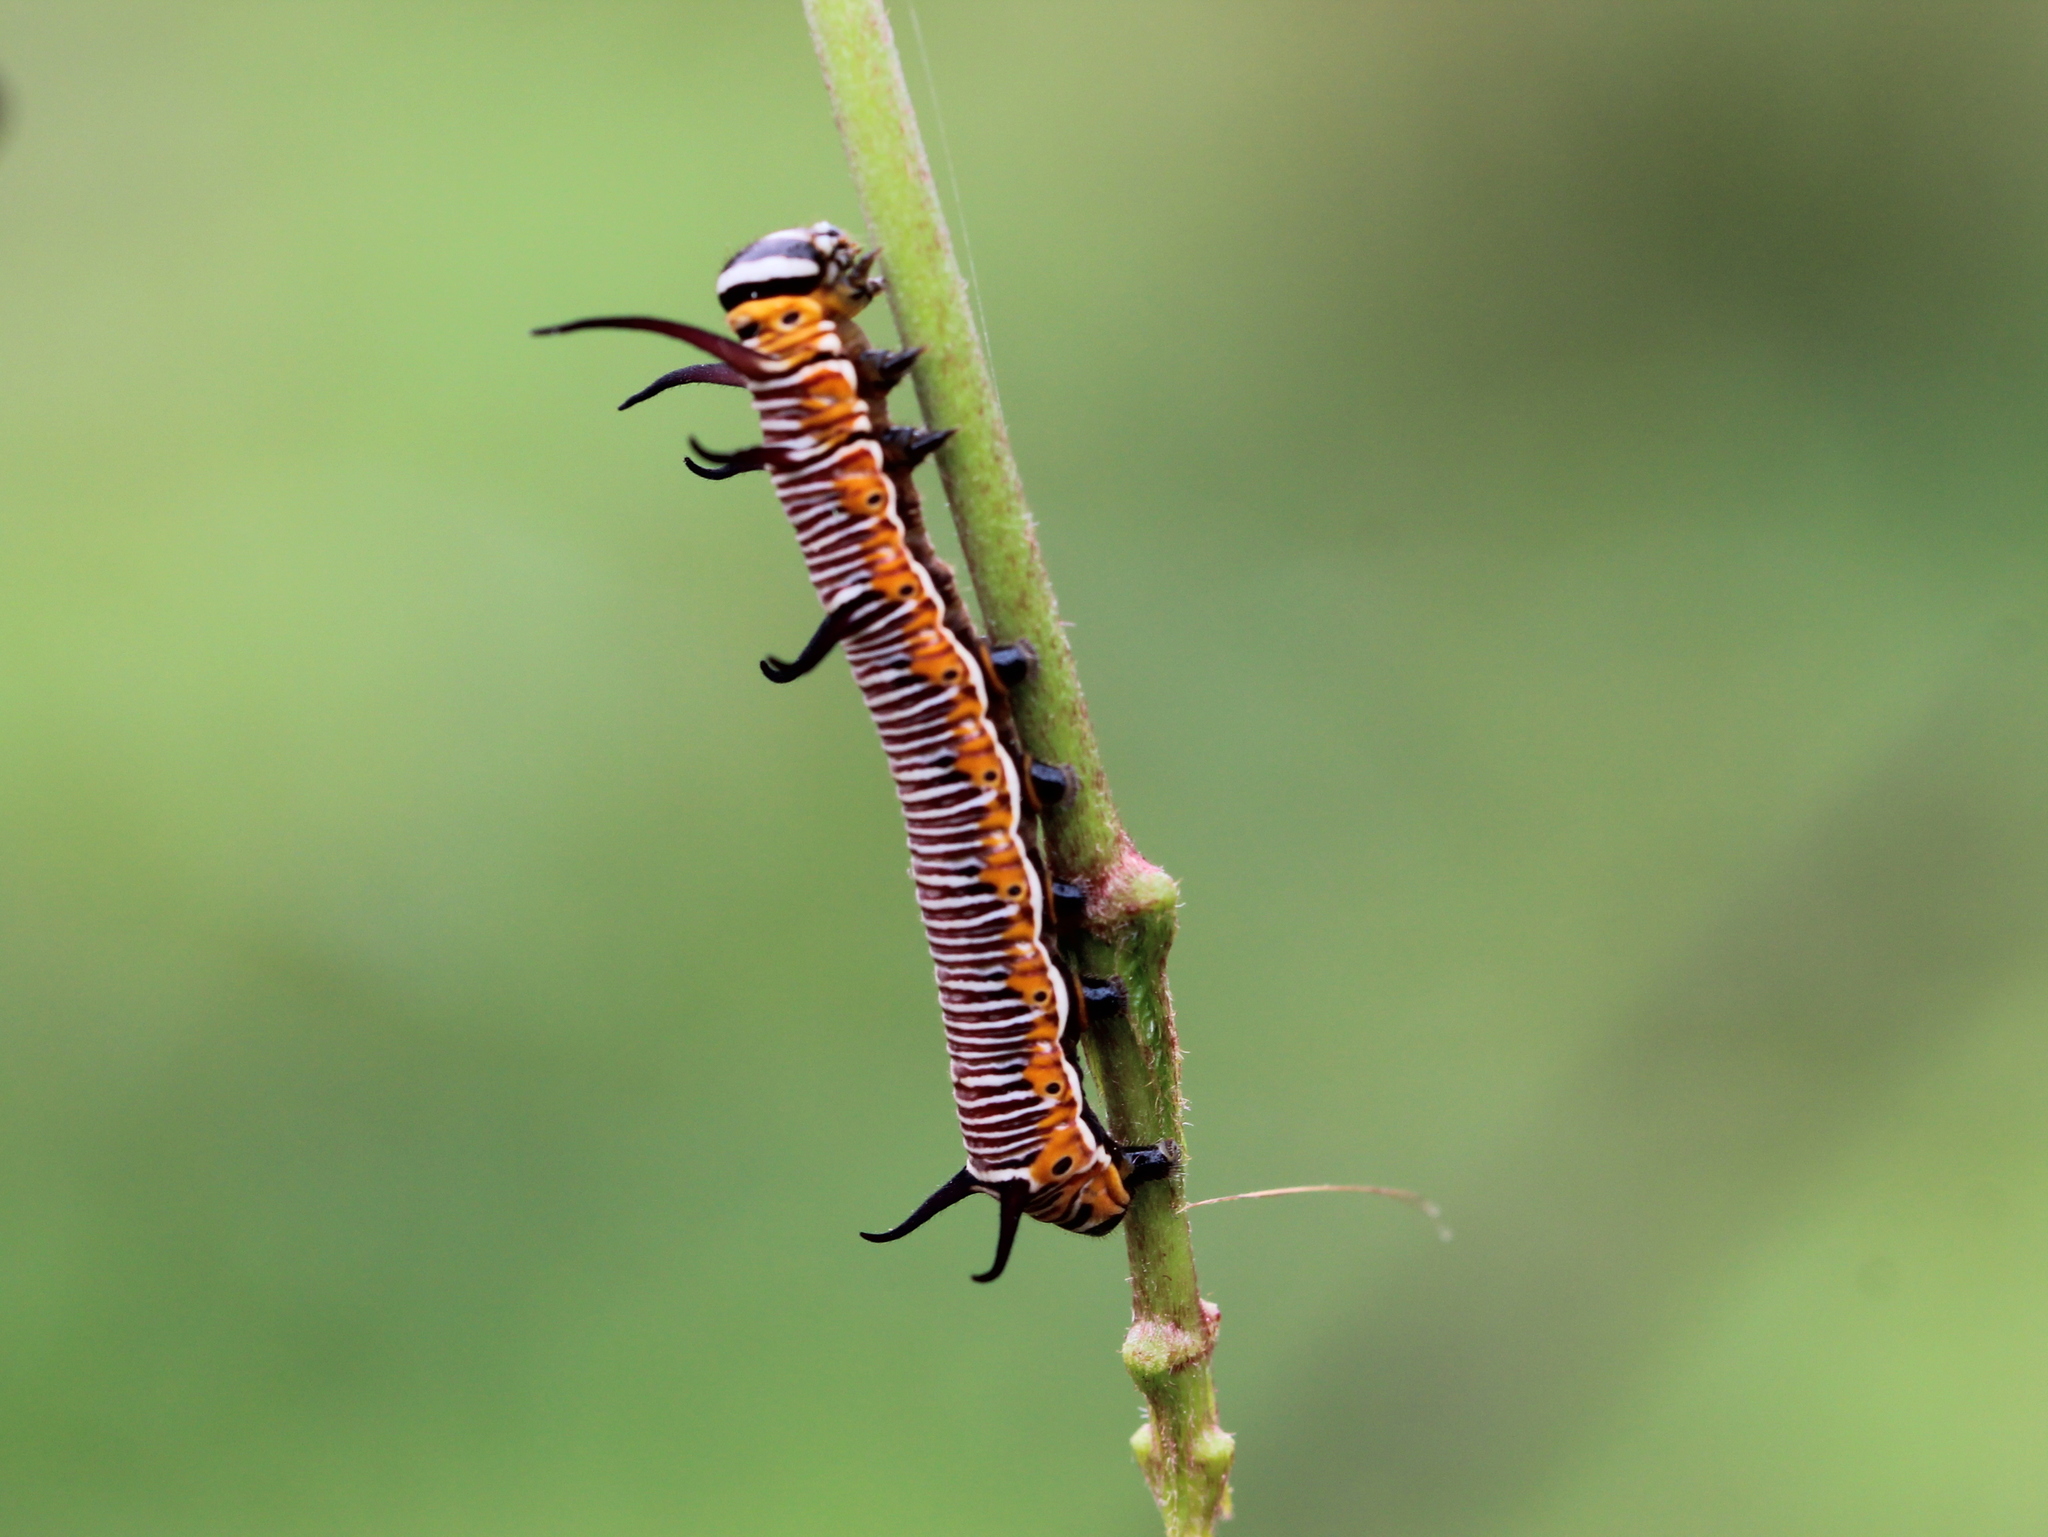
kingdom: Animalia
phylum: Arthropoda
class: Insecta
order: Lepidoptera
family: Nymphalidae
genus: Euploea
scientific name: Euploea core
